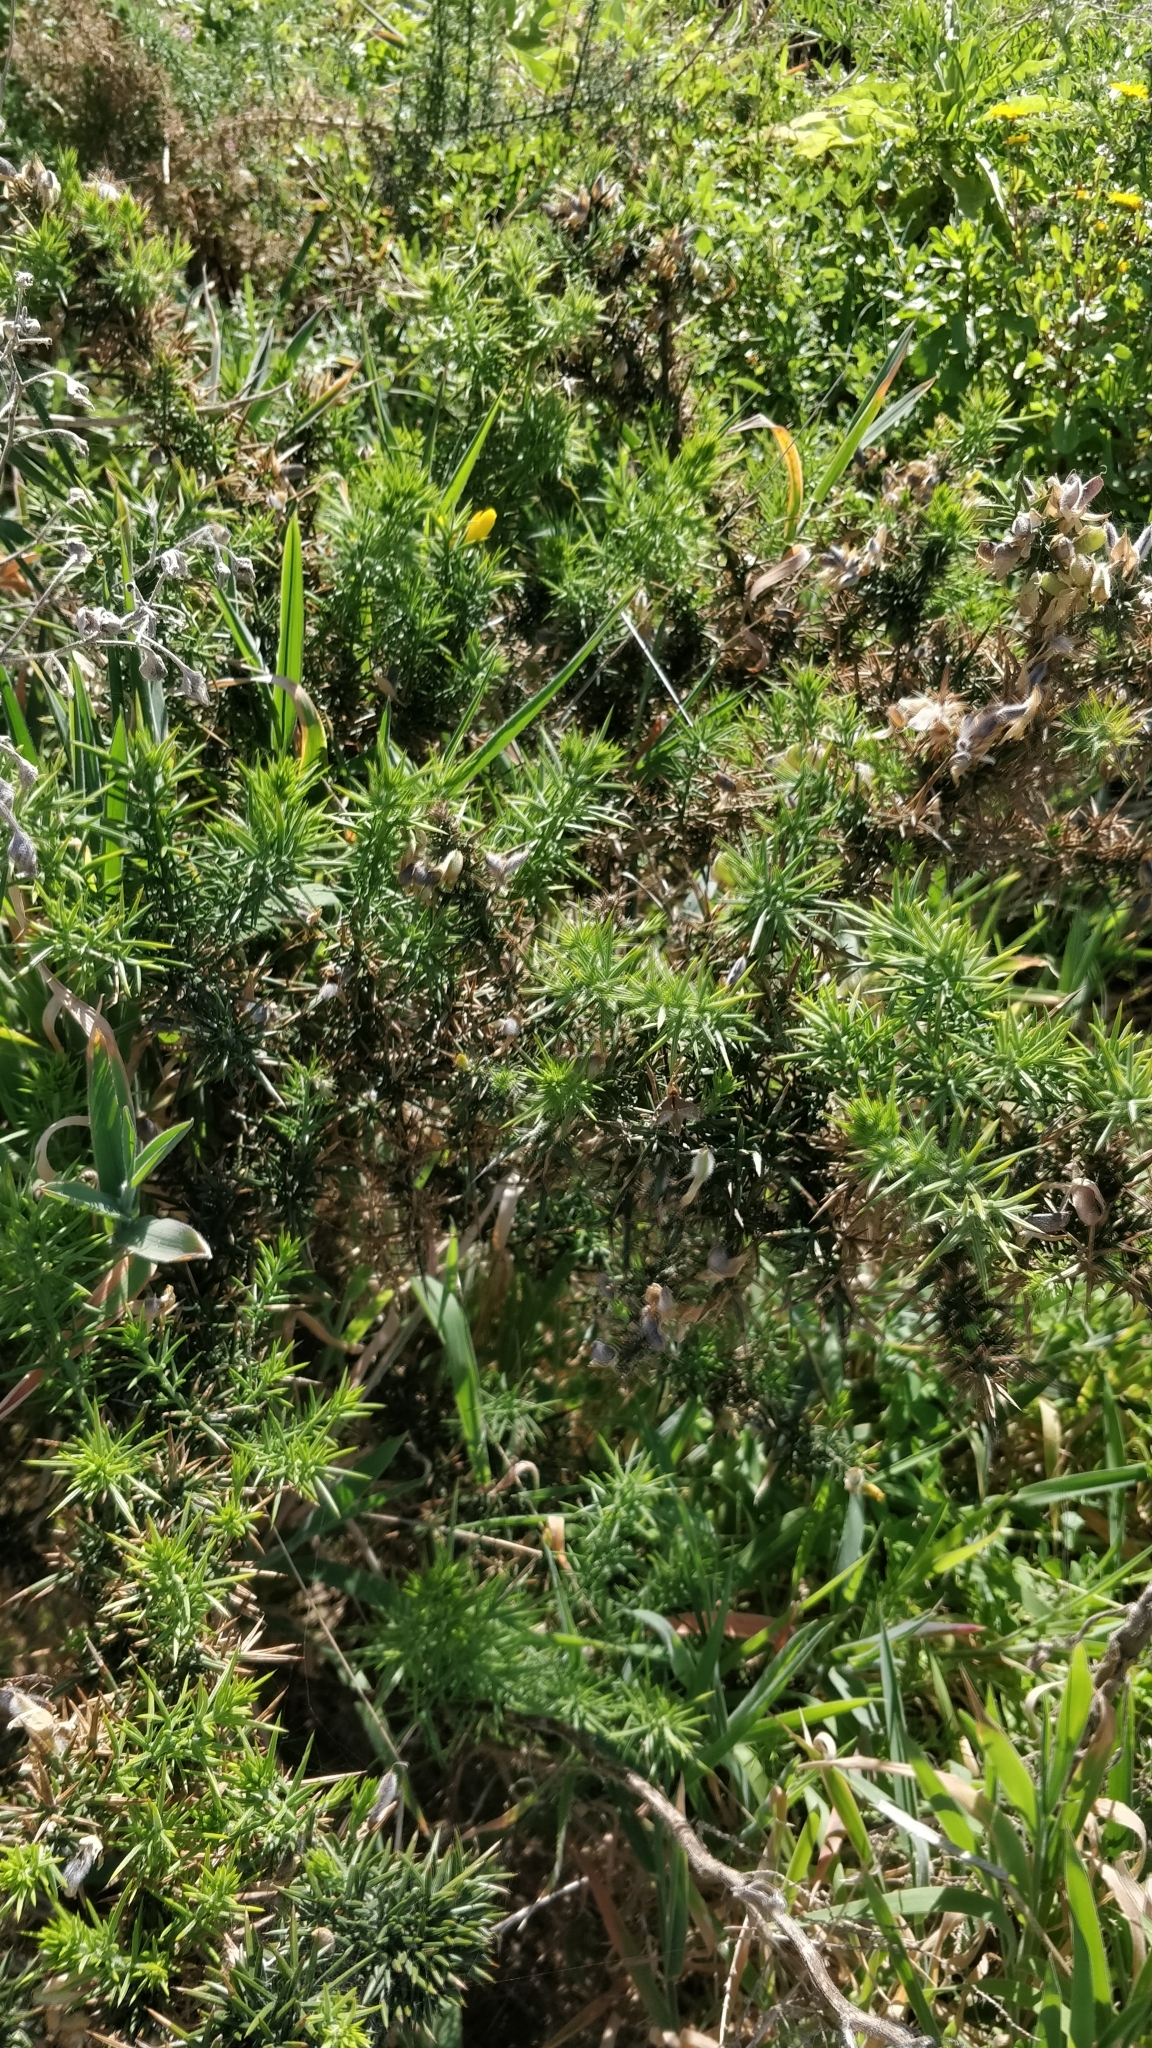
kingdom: Plantae
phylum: Tracheophyta
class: Magnoliopsida
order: Fabales
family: Fabaceae
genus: Ulex
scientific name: Ulex europaeus
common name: Common gorse
